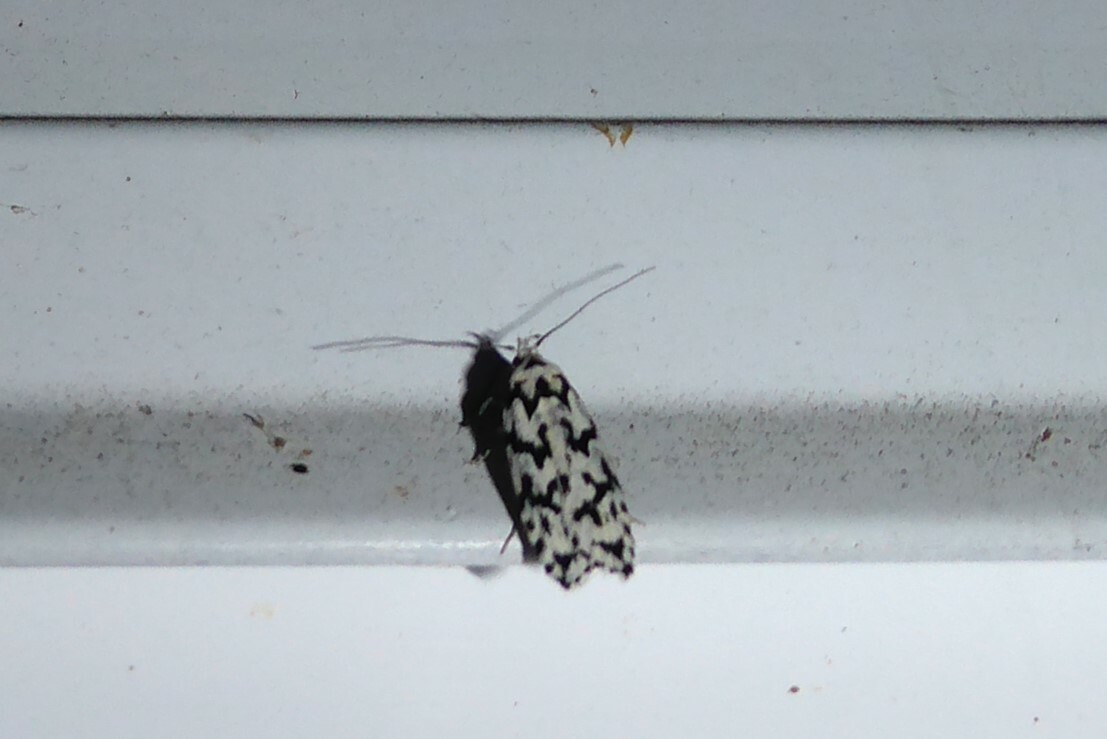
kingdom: Animalia
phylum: Arthropoda
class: Insecta
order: Lepidoptera
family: Oecophoridae
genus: Izatha
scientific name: Izatha katadiktya
